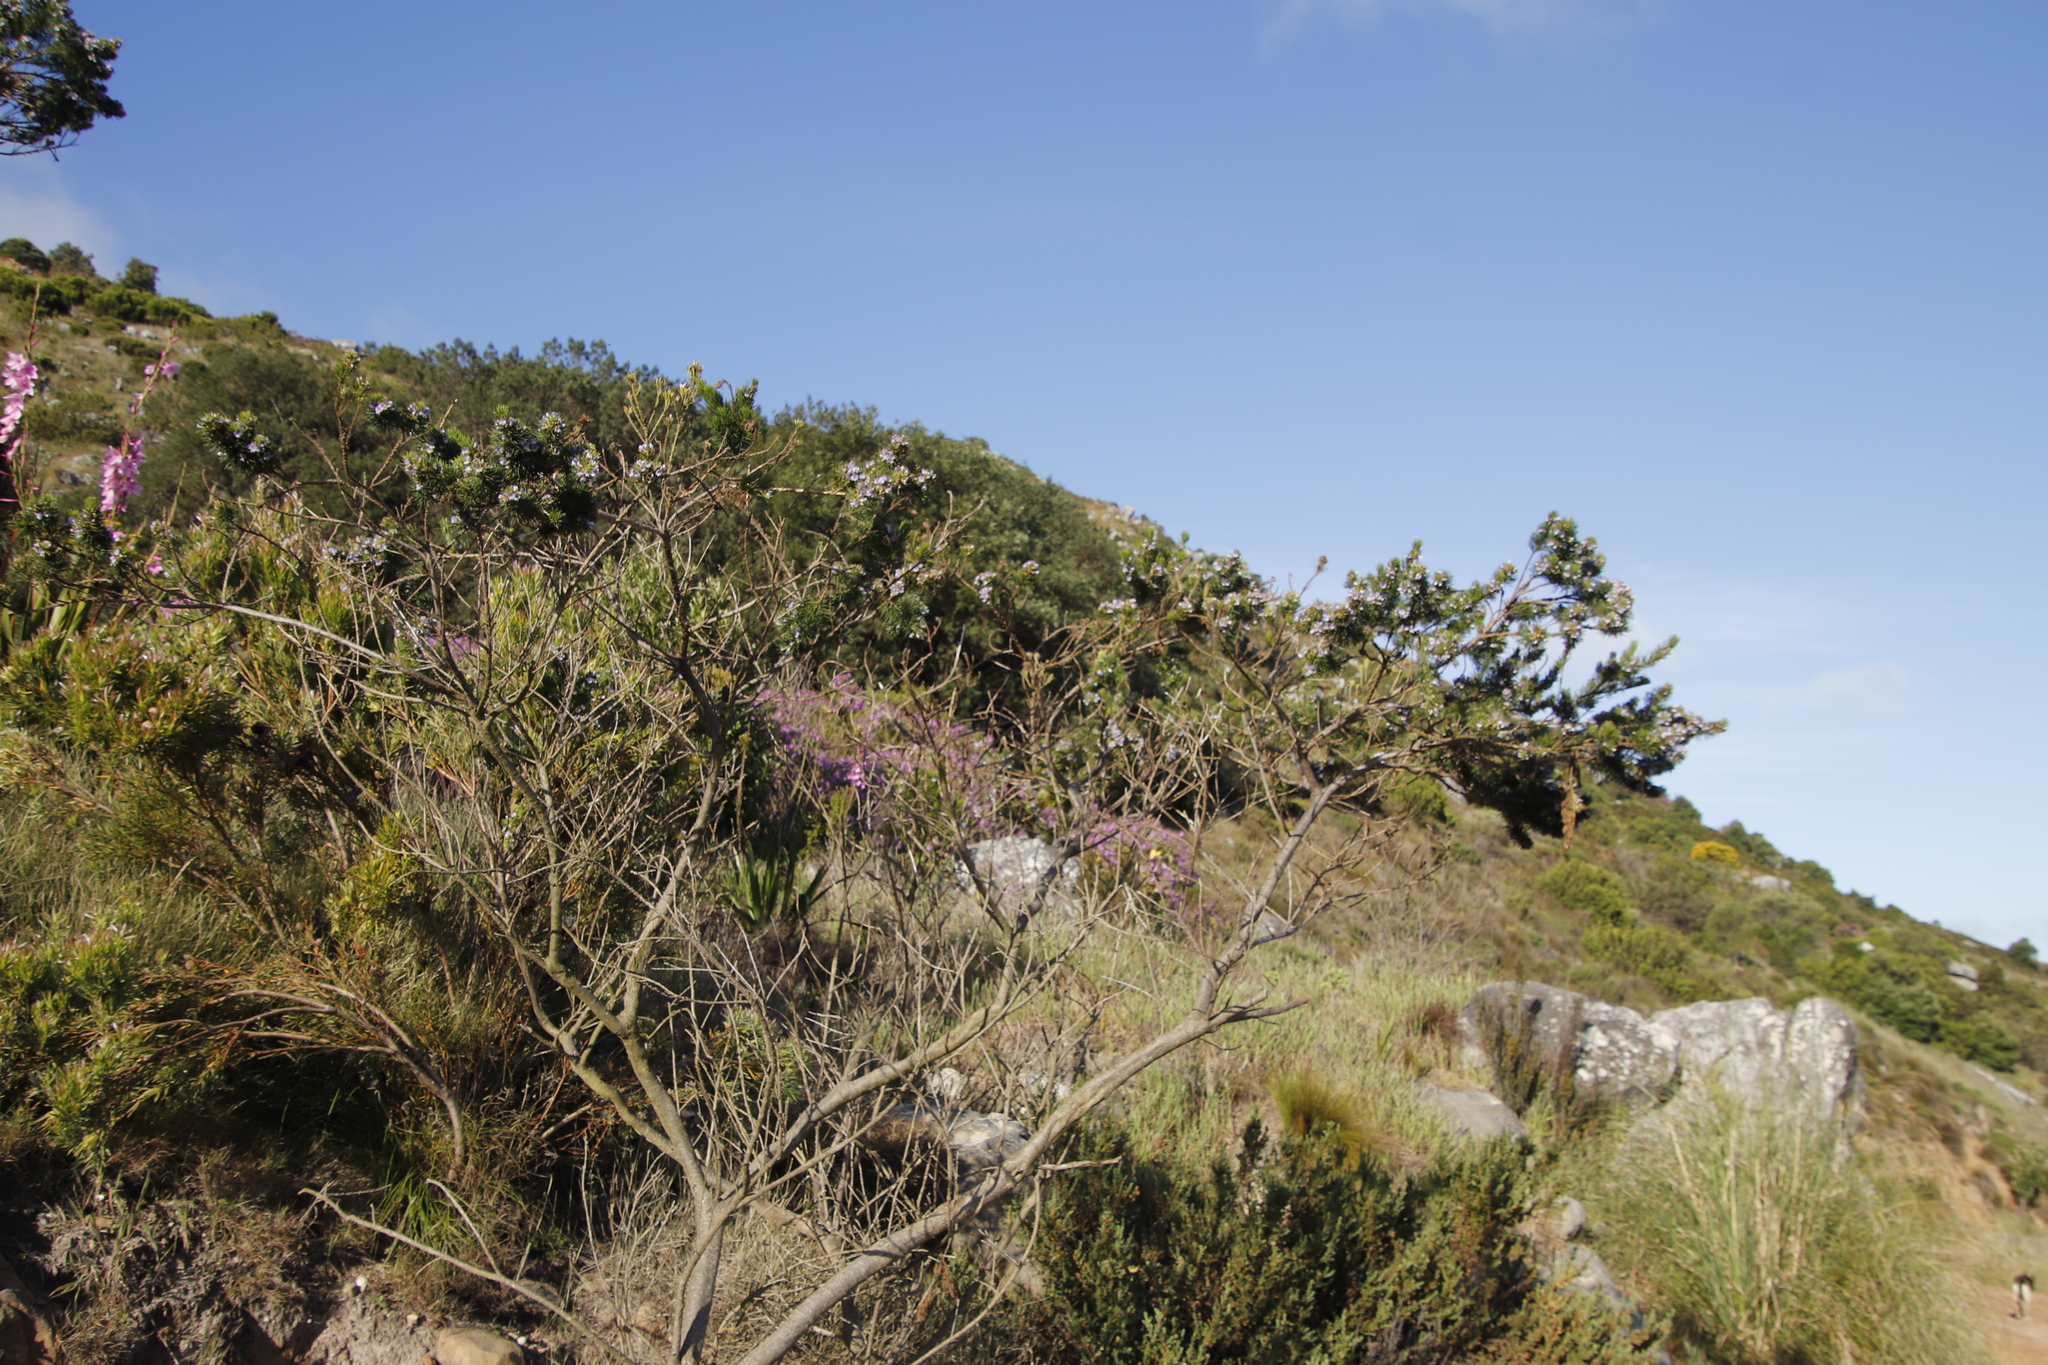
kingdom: Plantae
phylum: Tracheophyta
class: Magnoliopsida
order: Fabales
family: Fabaceae
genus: Psoralea
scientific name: Psoralea pinnata
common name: African scurfpea
